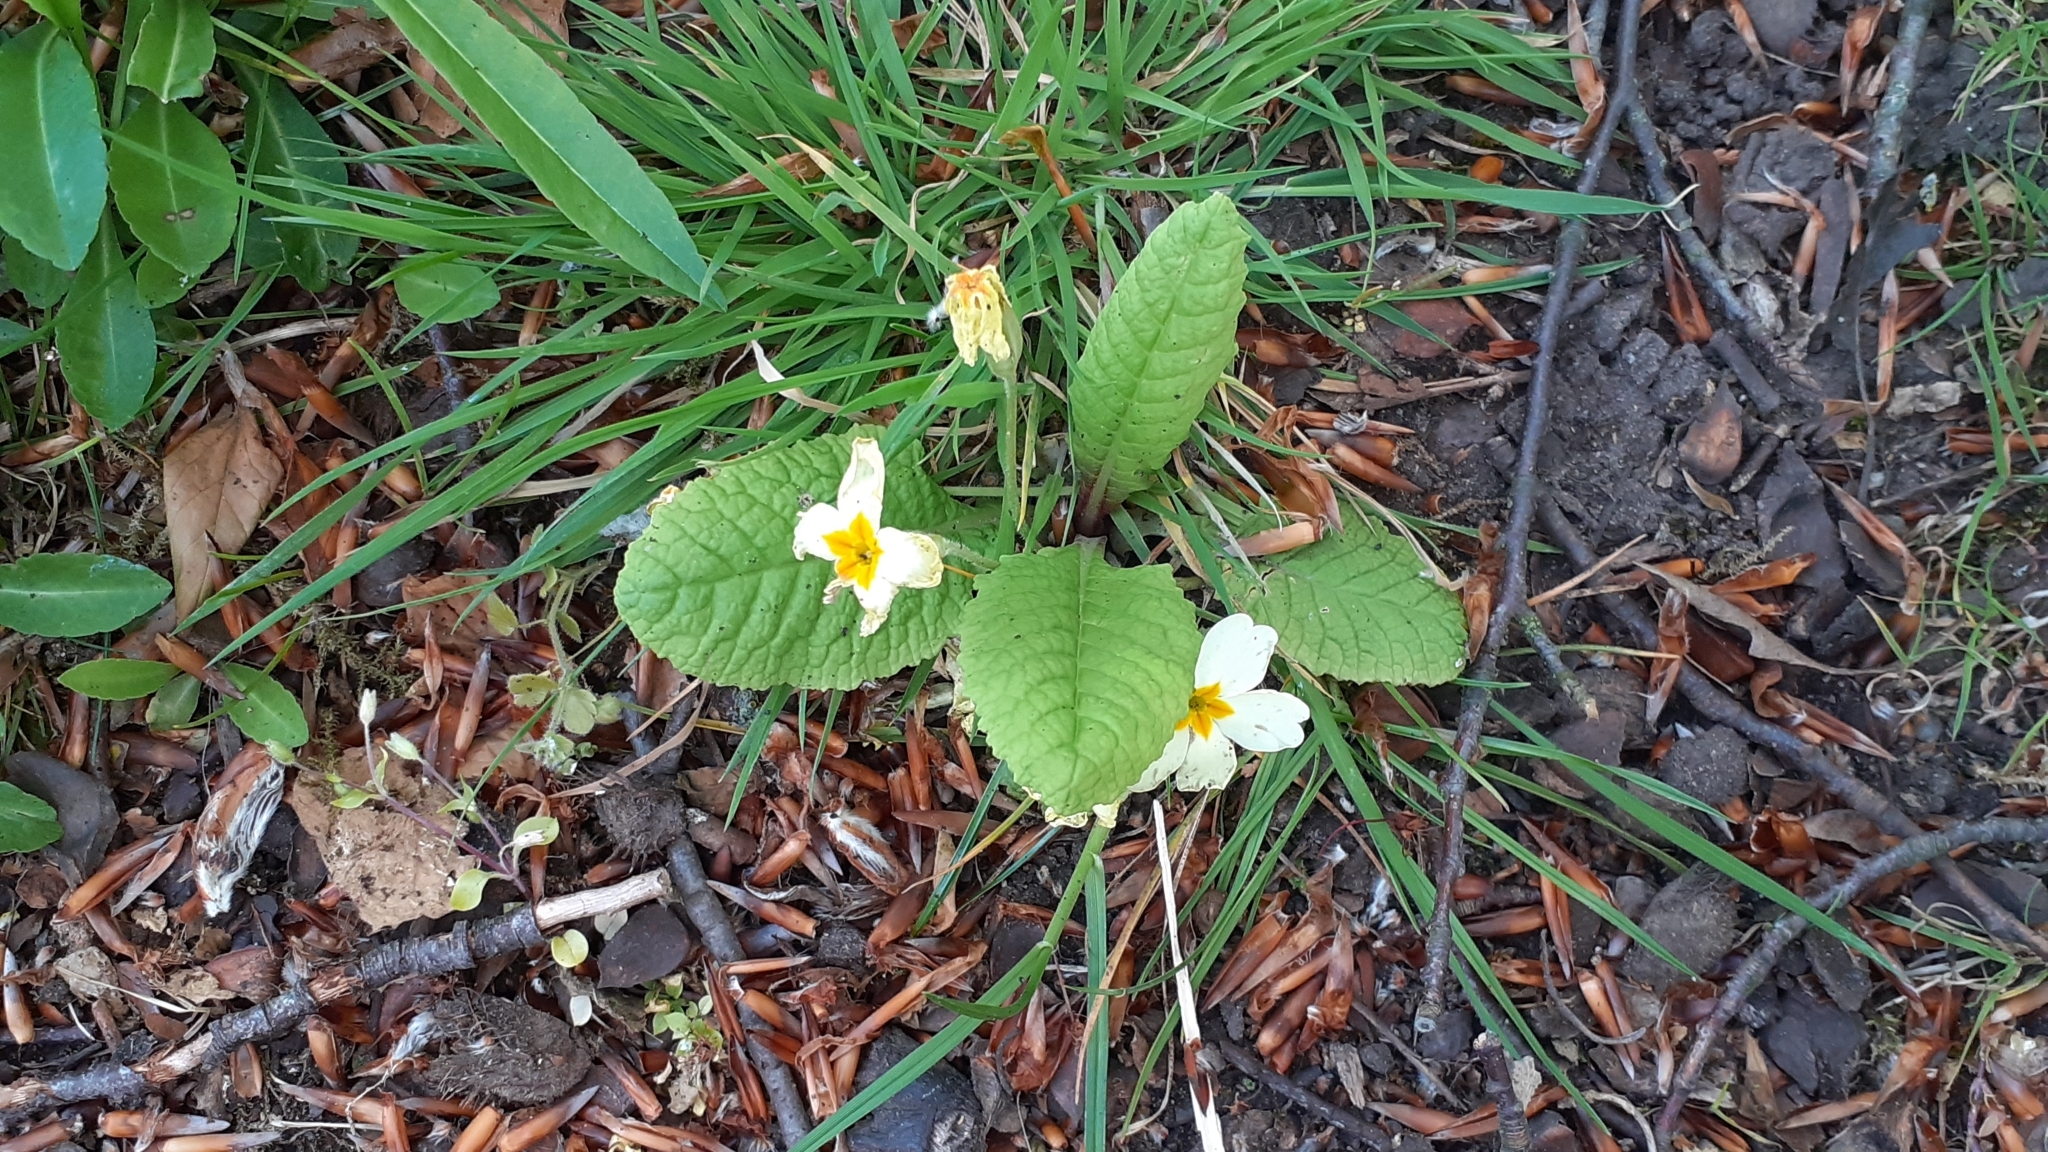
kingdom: Plantae
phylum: Tracheophyta
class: Magnoliopsida
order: Ericales
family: Primulaceae
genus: Primula
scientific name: Primula vulgaris
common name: Primrose
